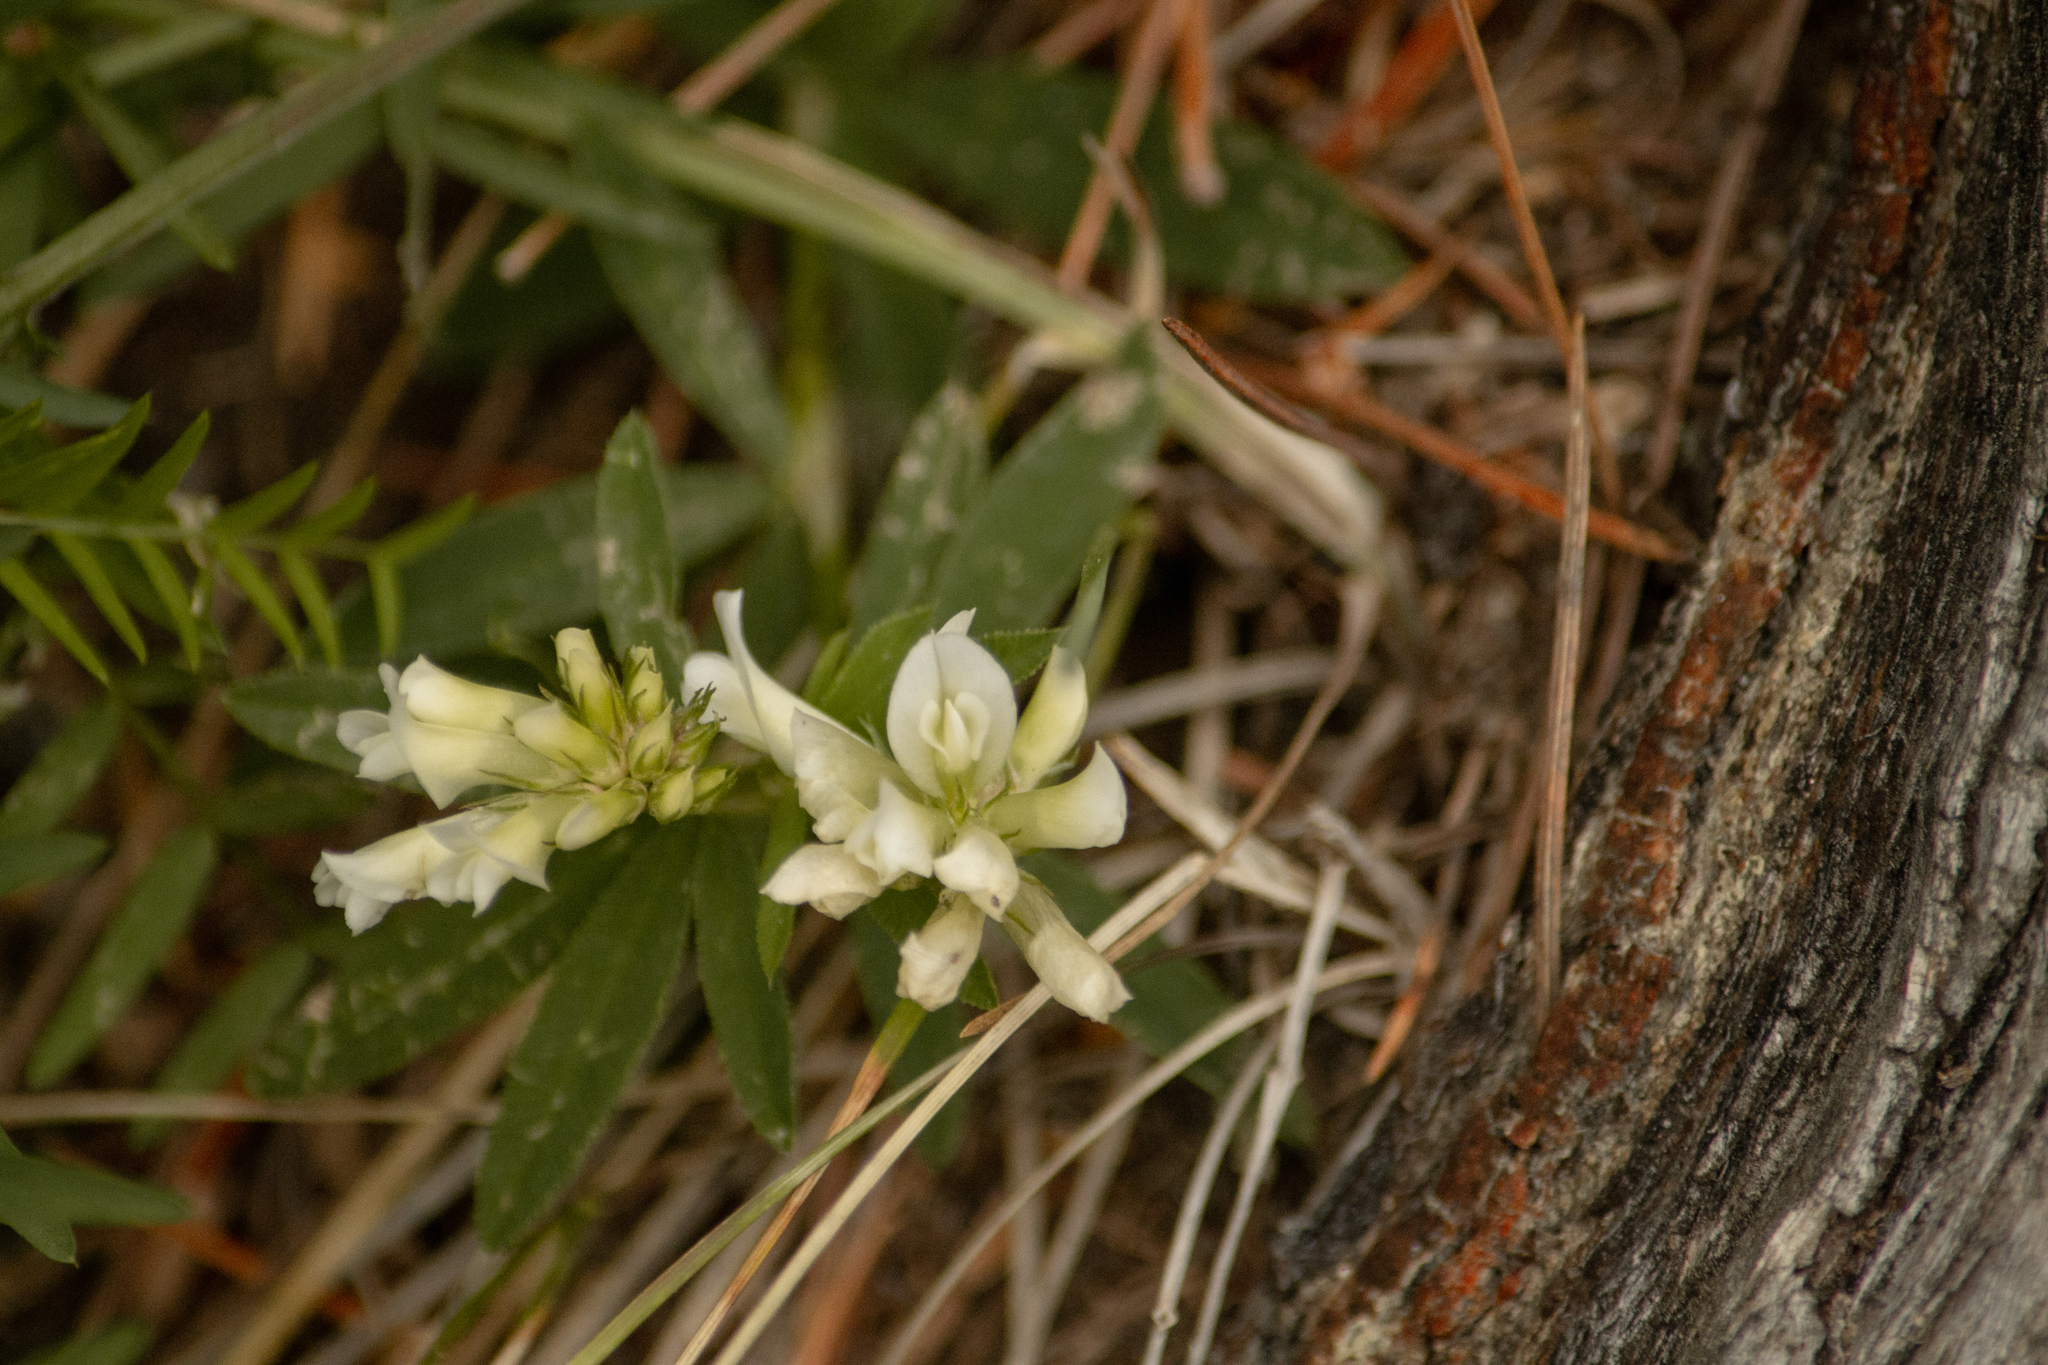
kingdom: Plantae
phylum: Tracheophyta
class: Magnoliopsida
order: Fabales
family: Fabaceae
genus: Trifolium
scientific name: Trifolium lupinaster
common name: Lupine clover
